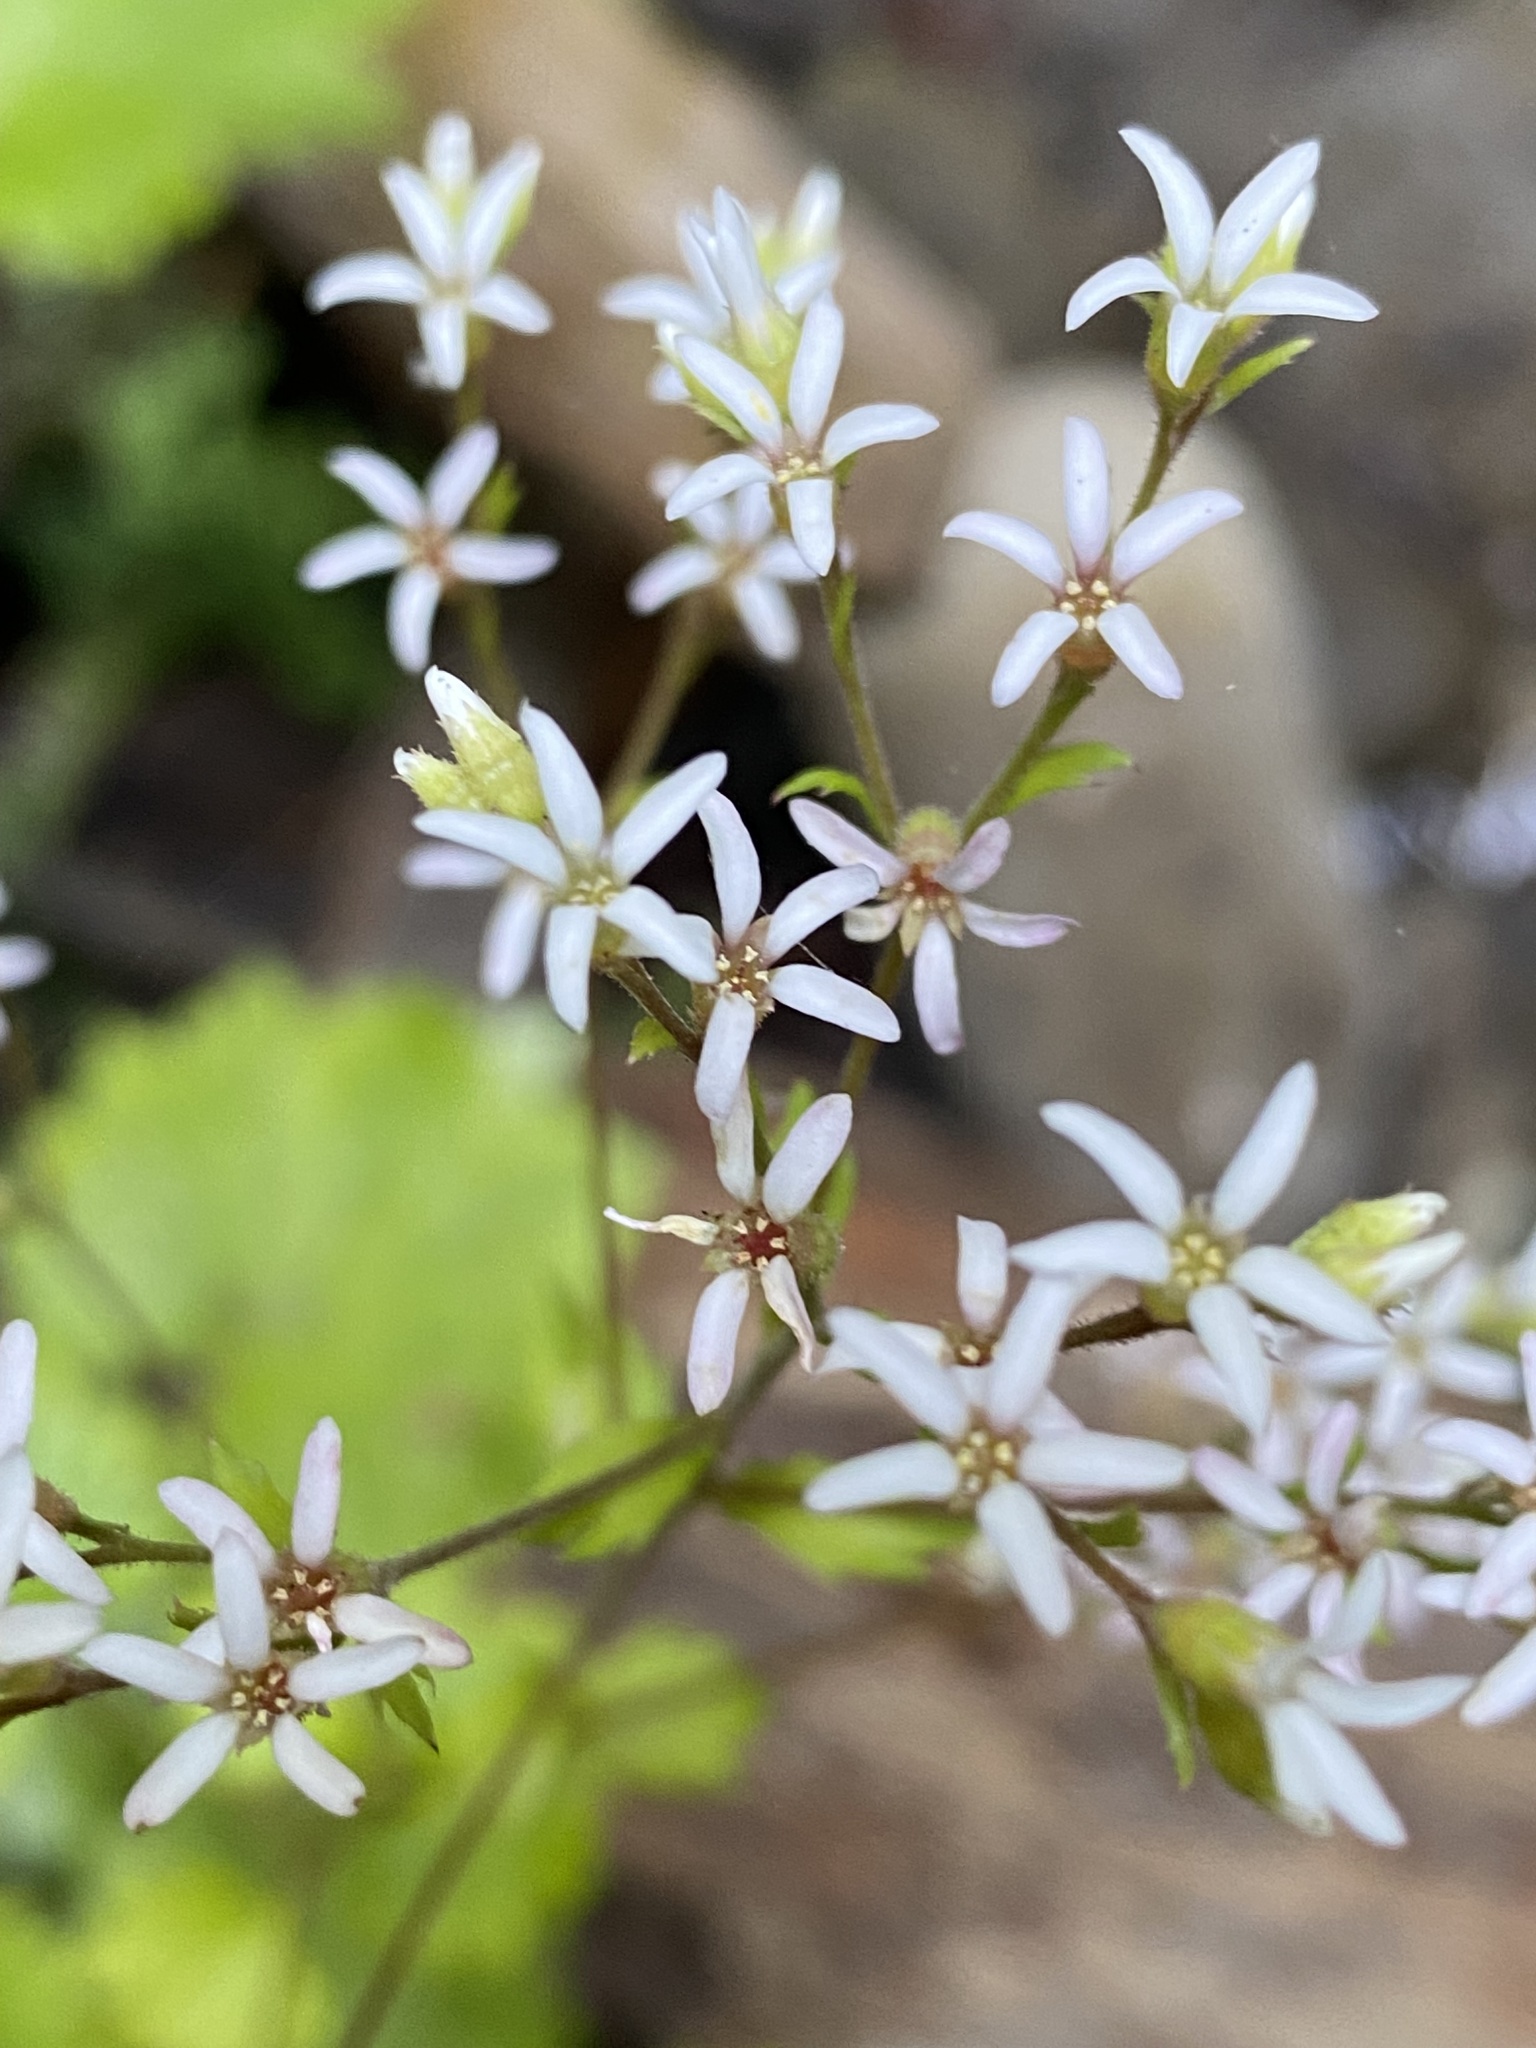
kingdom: Plantae
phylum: Tracheophyta
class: Magnoliopsida
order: Saxifragales
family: Saxifragaceae
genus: Boykinia
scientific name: Boykinia occidentalis
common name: Coast boykinia
